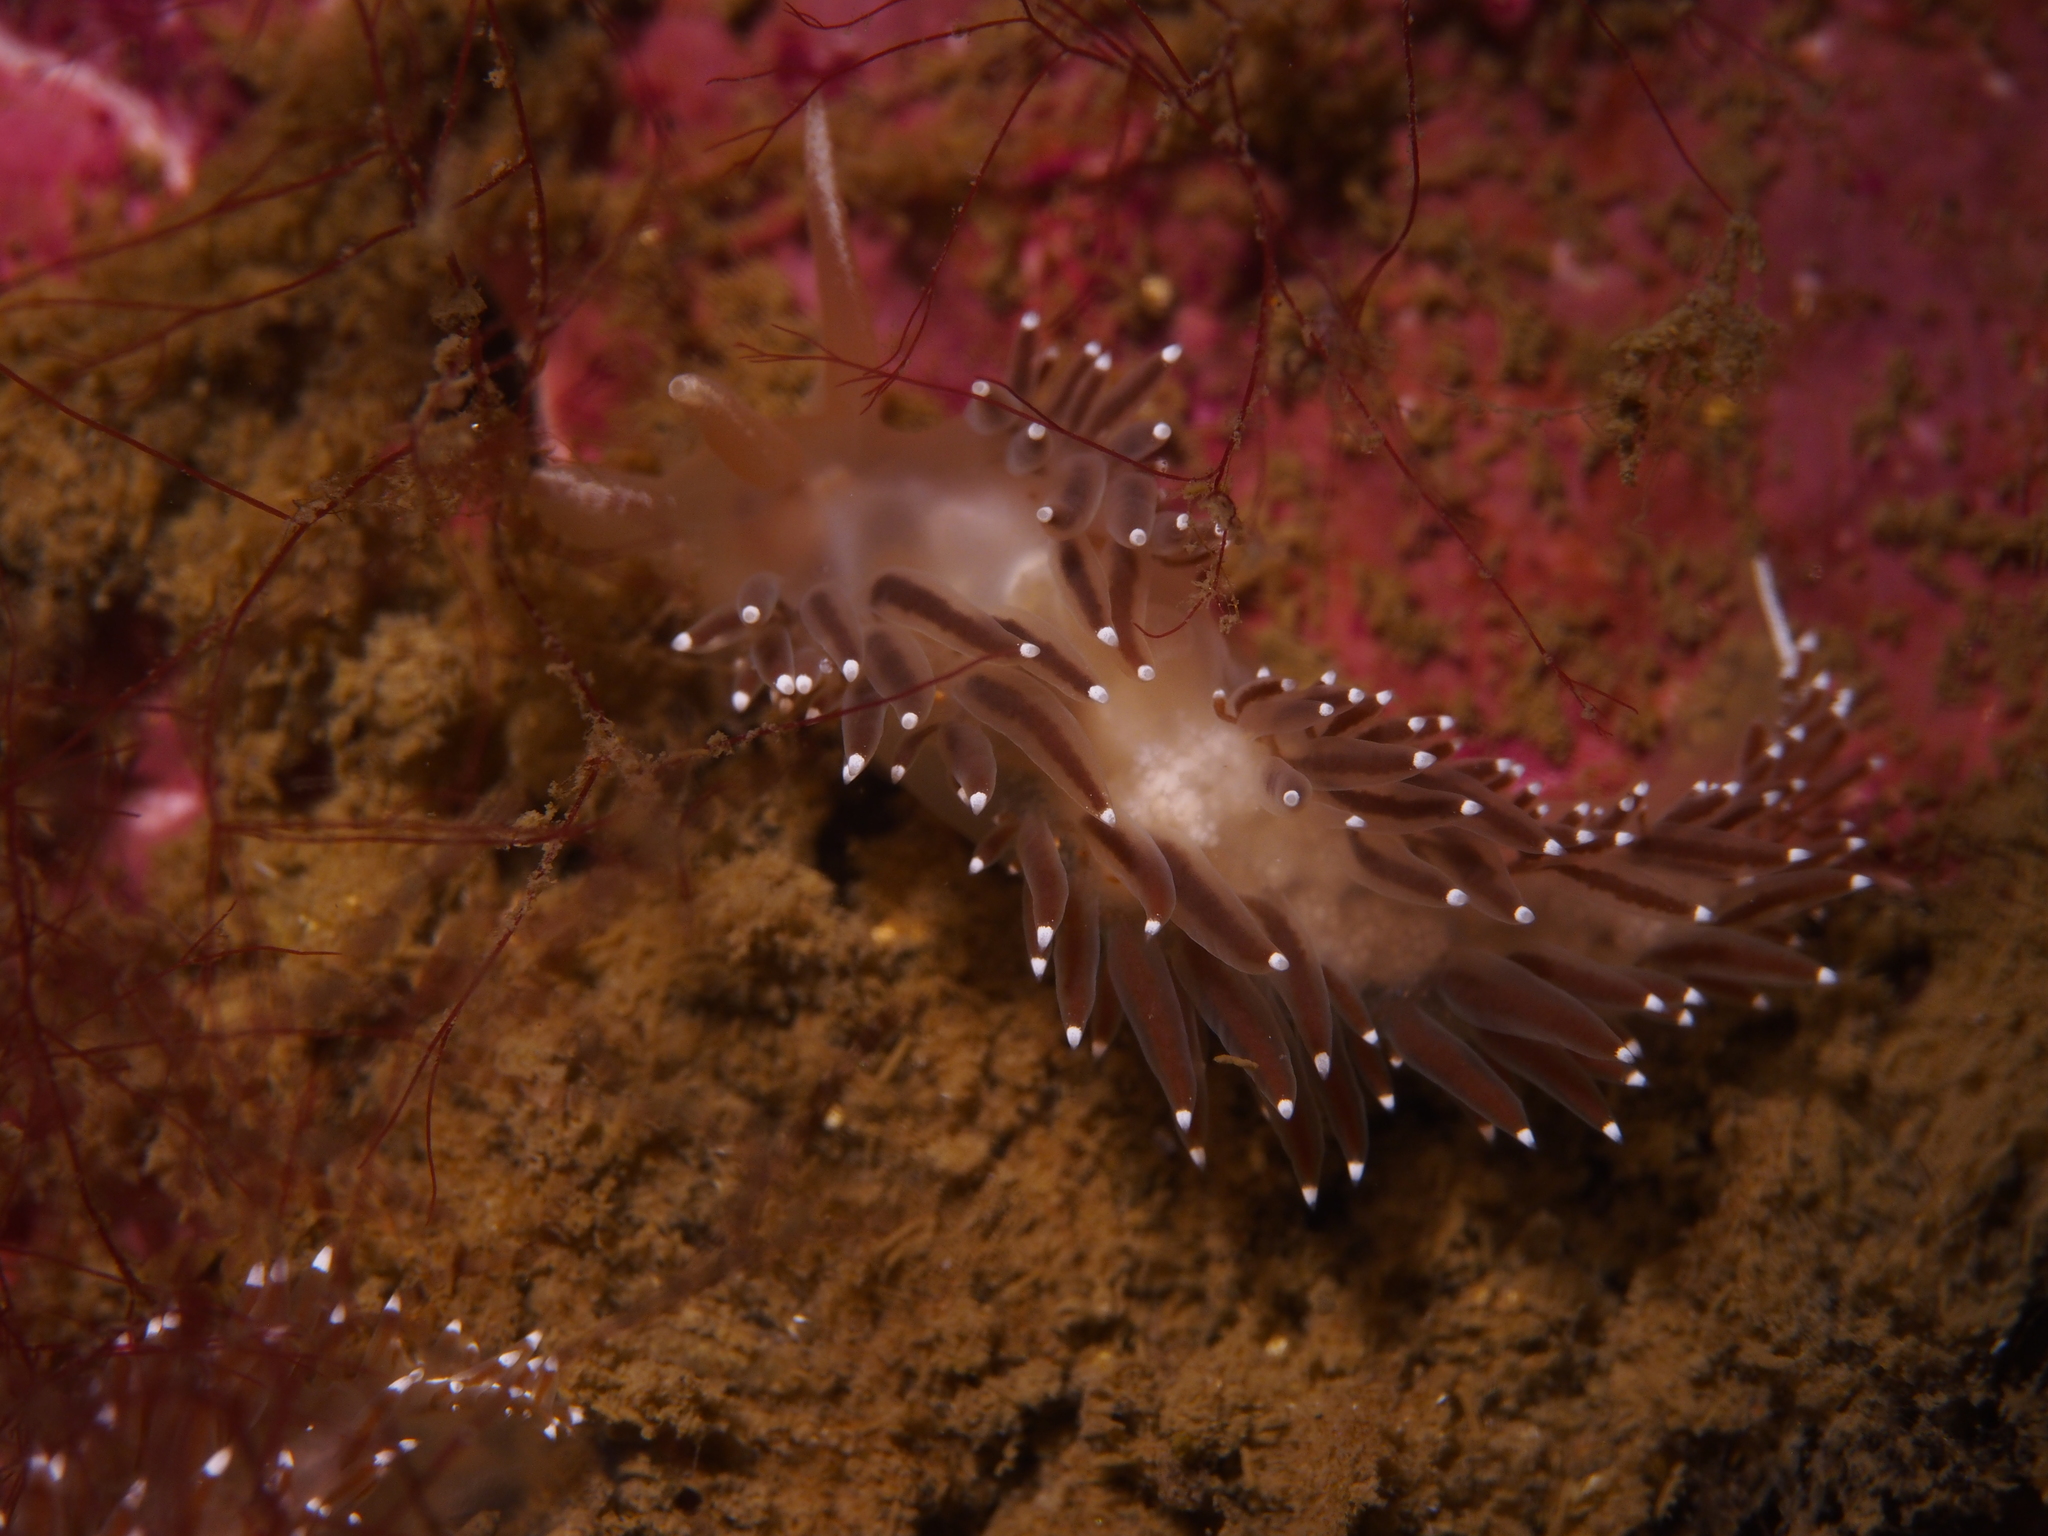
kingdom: Animalia
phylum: Mollusca
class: Gastropoda
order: Nudibranchia
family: Coryphellidae
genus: Coryphella
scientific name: Coryphella verrucosa
